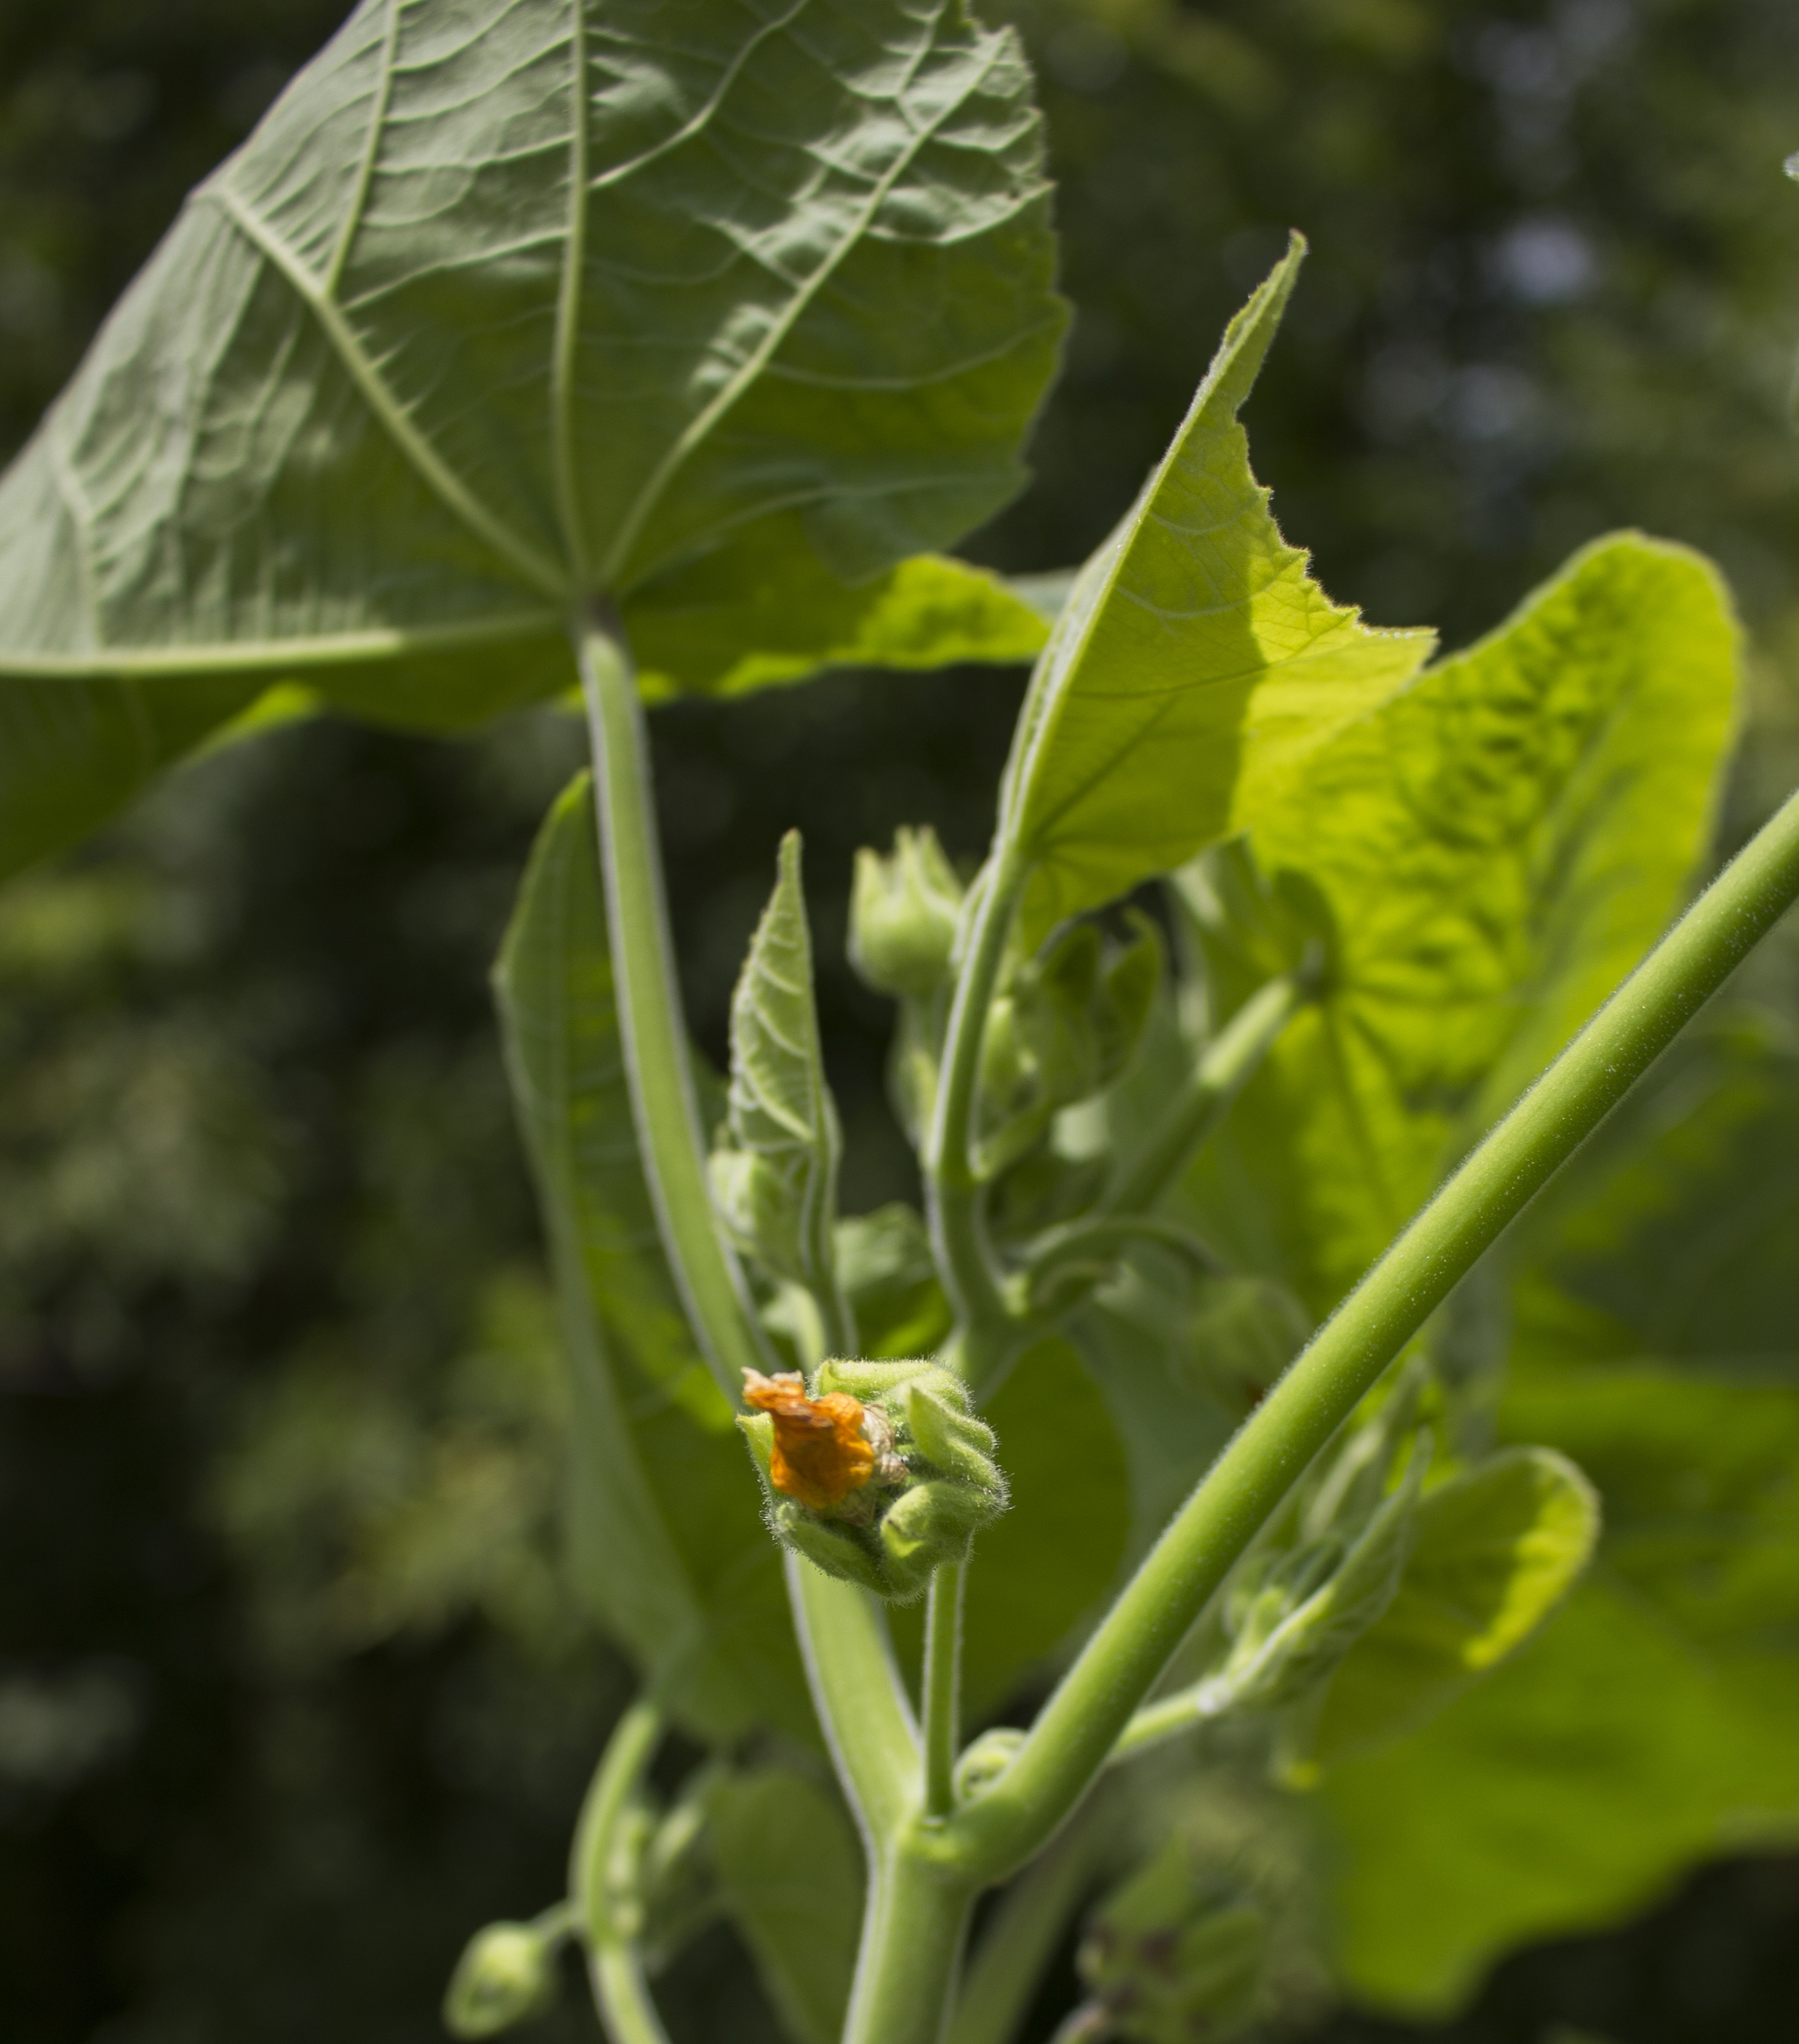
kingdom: Plantae
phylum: Tracheophyta
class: Magnoliopsida
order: Malvales
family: Malvaceae
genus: Abutilon
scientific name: Abutilon theophrasti
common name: Velvetleaf
